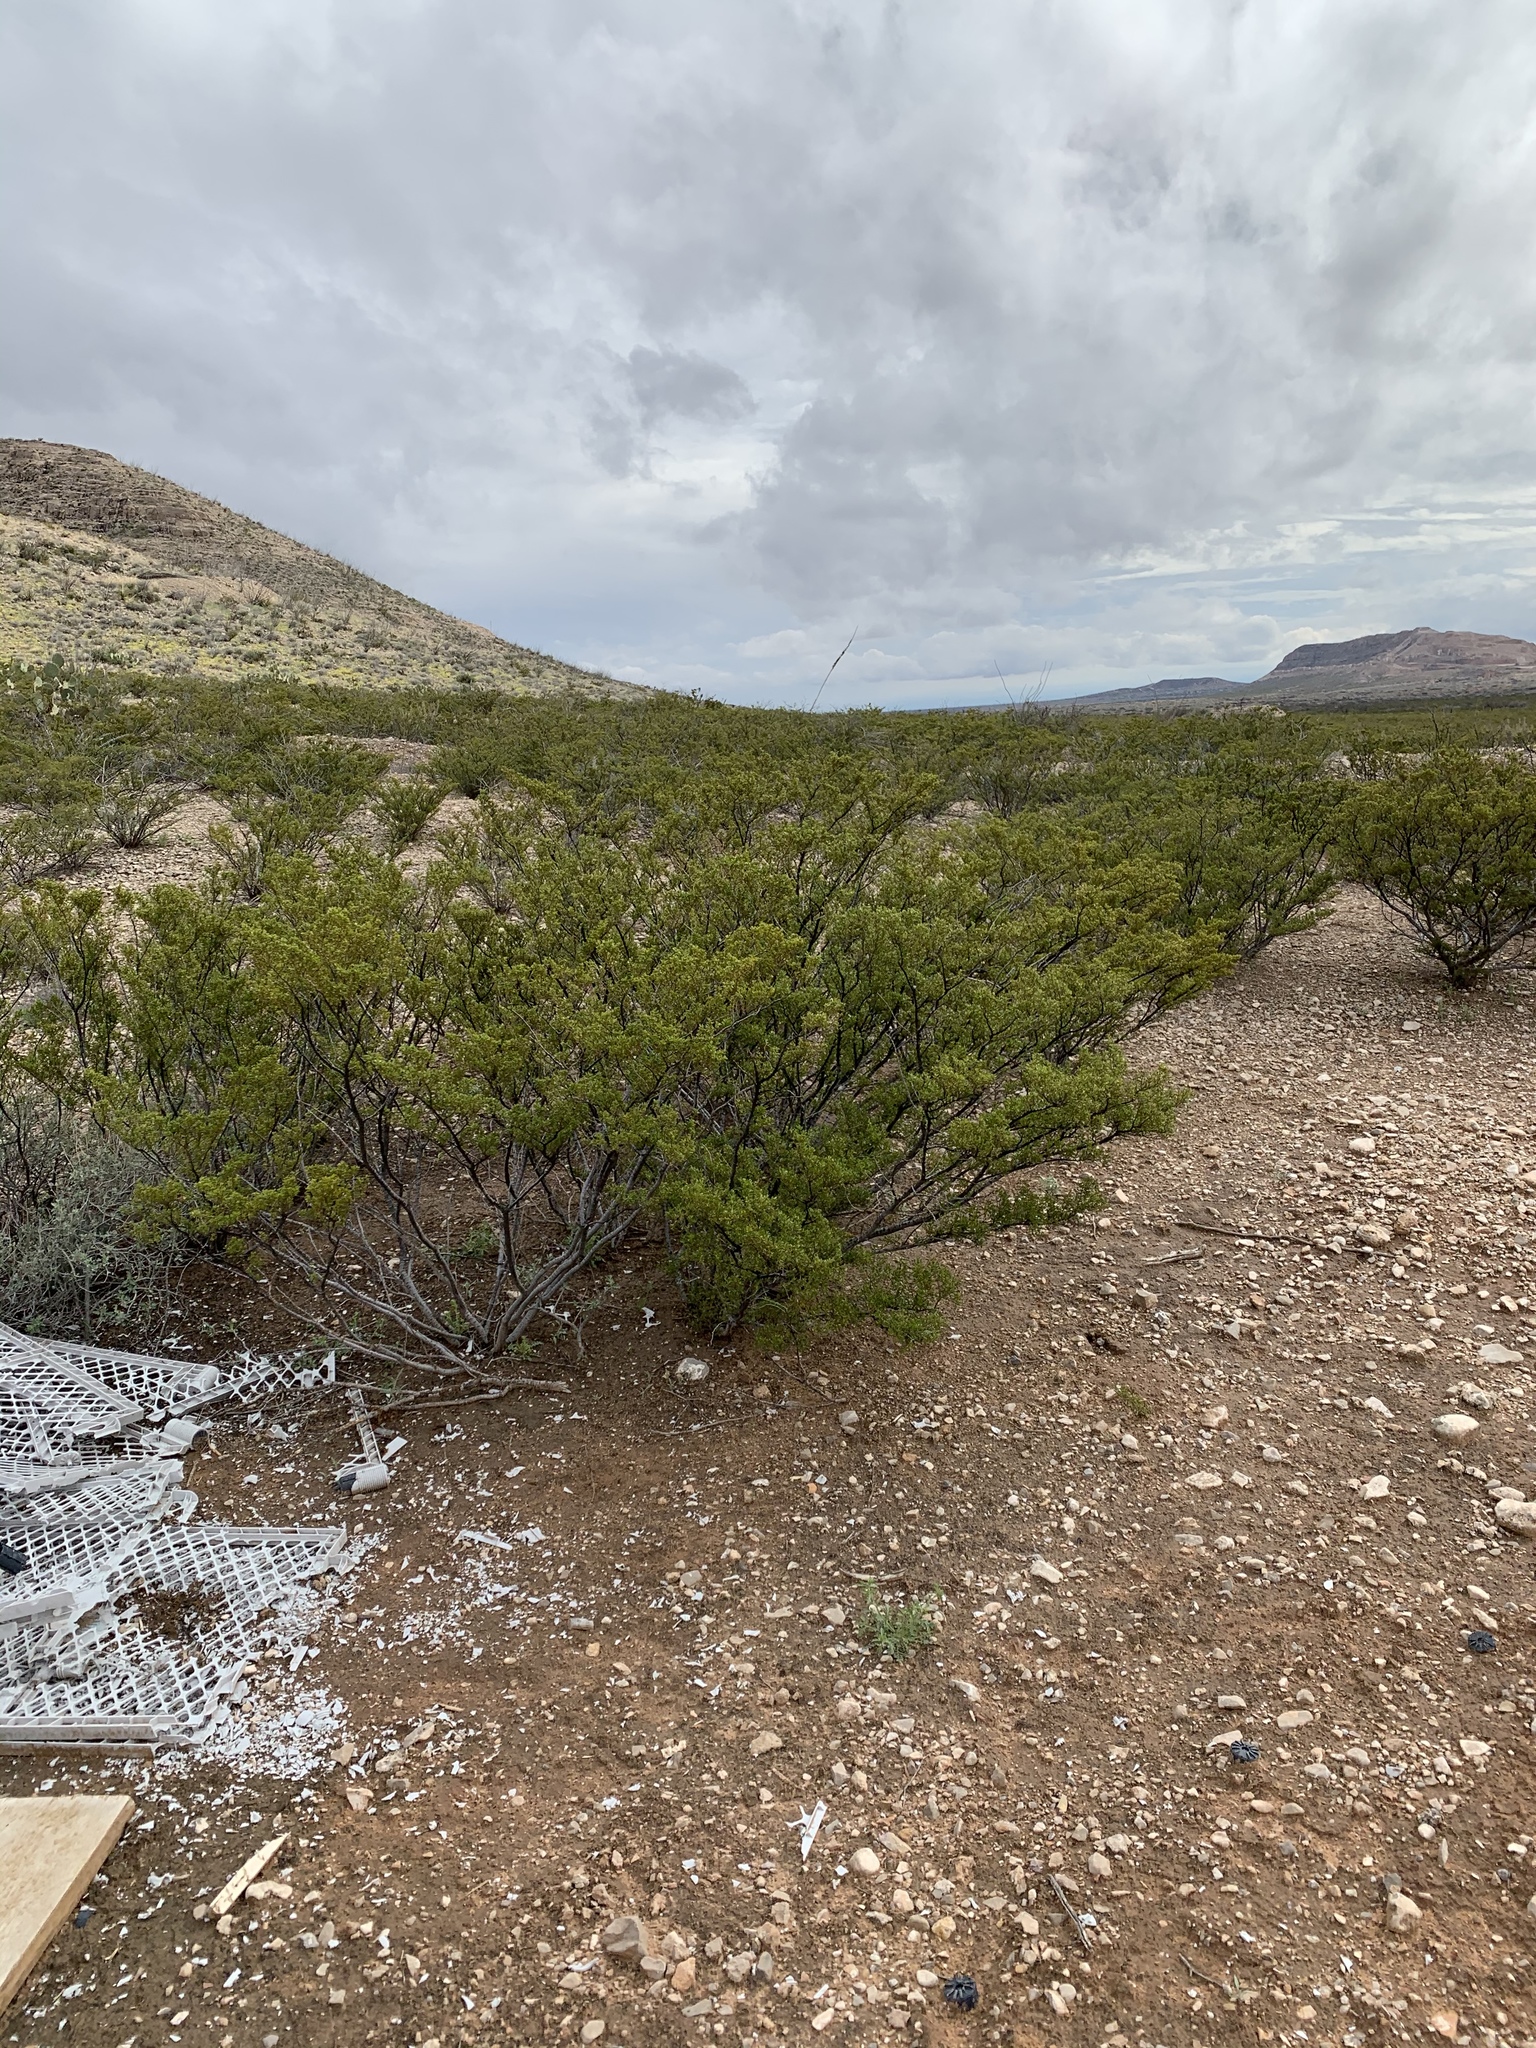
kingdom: Plantae
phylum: Tracheophyta
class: Magnoliopsida
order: Zygophyllales
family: Zygophyllaceae
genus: Larrea
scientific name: Larrea tridentata
